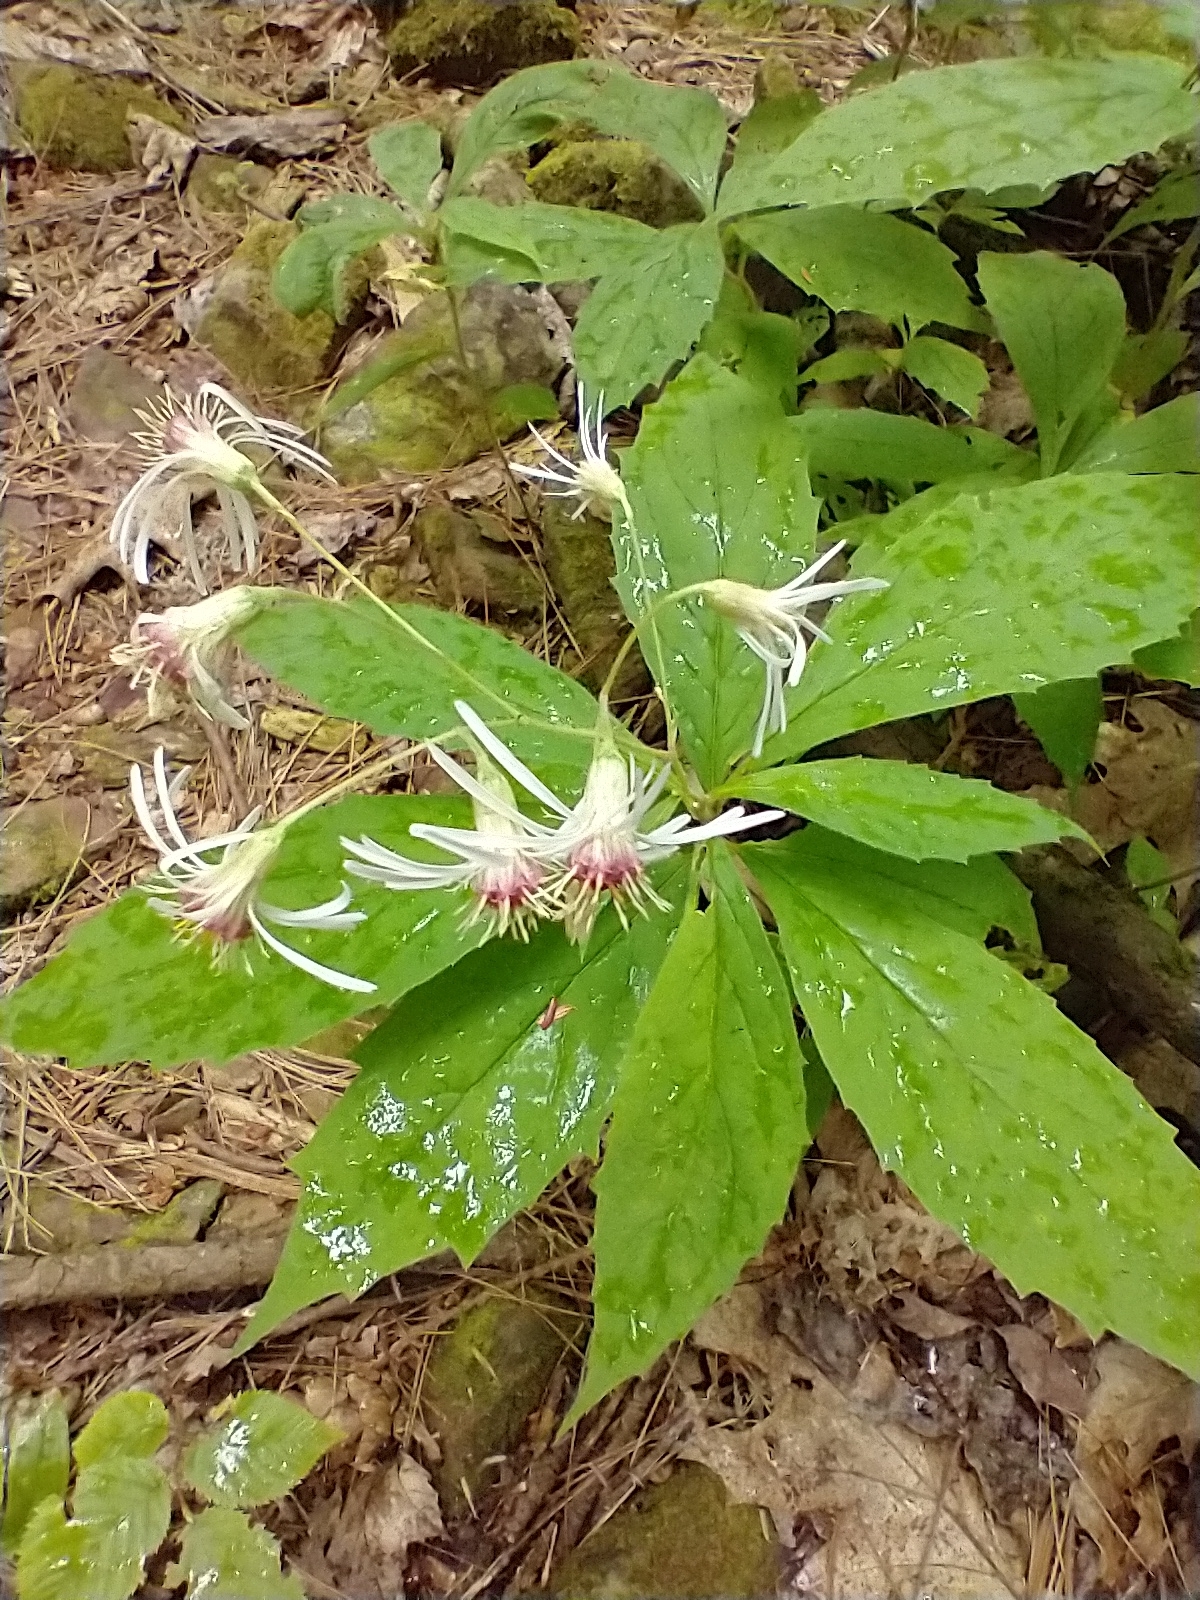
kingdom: Plantae
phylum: Tracheophyta
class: Magnoliopsida
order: Asterales
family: Asteraceae
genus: Oclemena
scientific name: Oclemena acuminata
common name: Mountain aster
